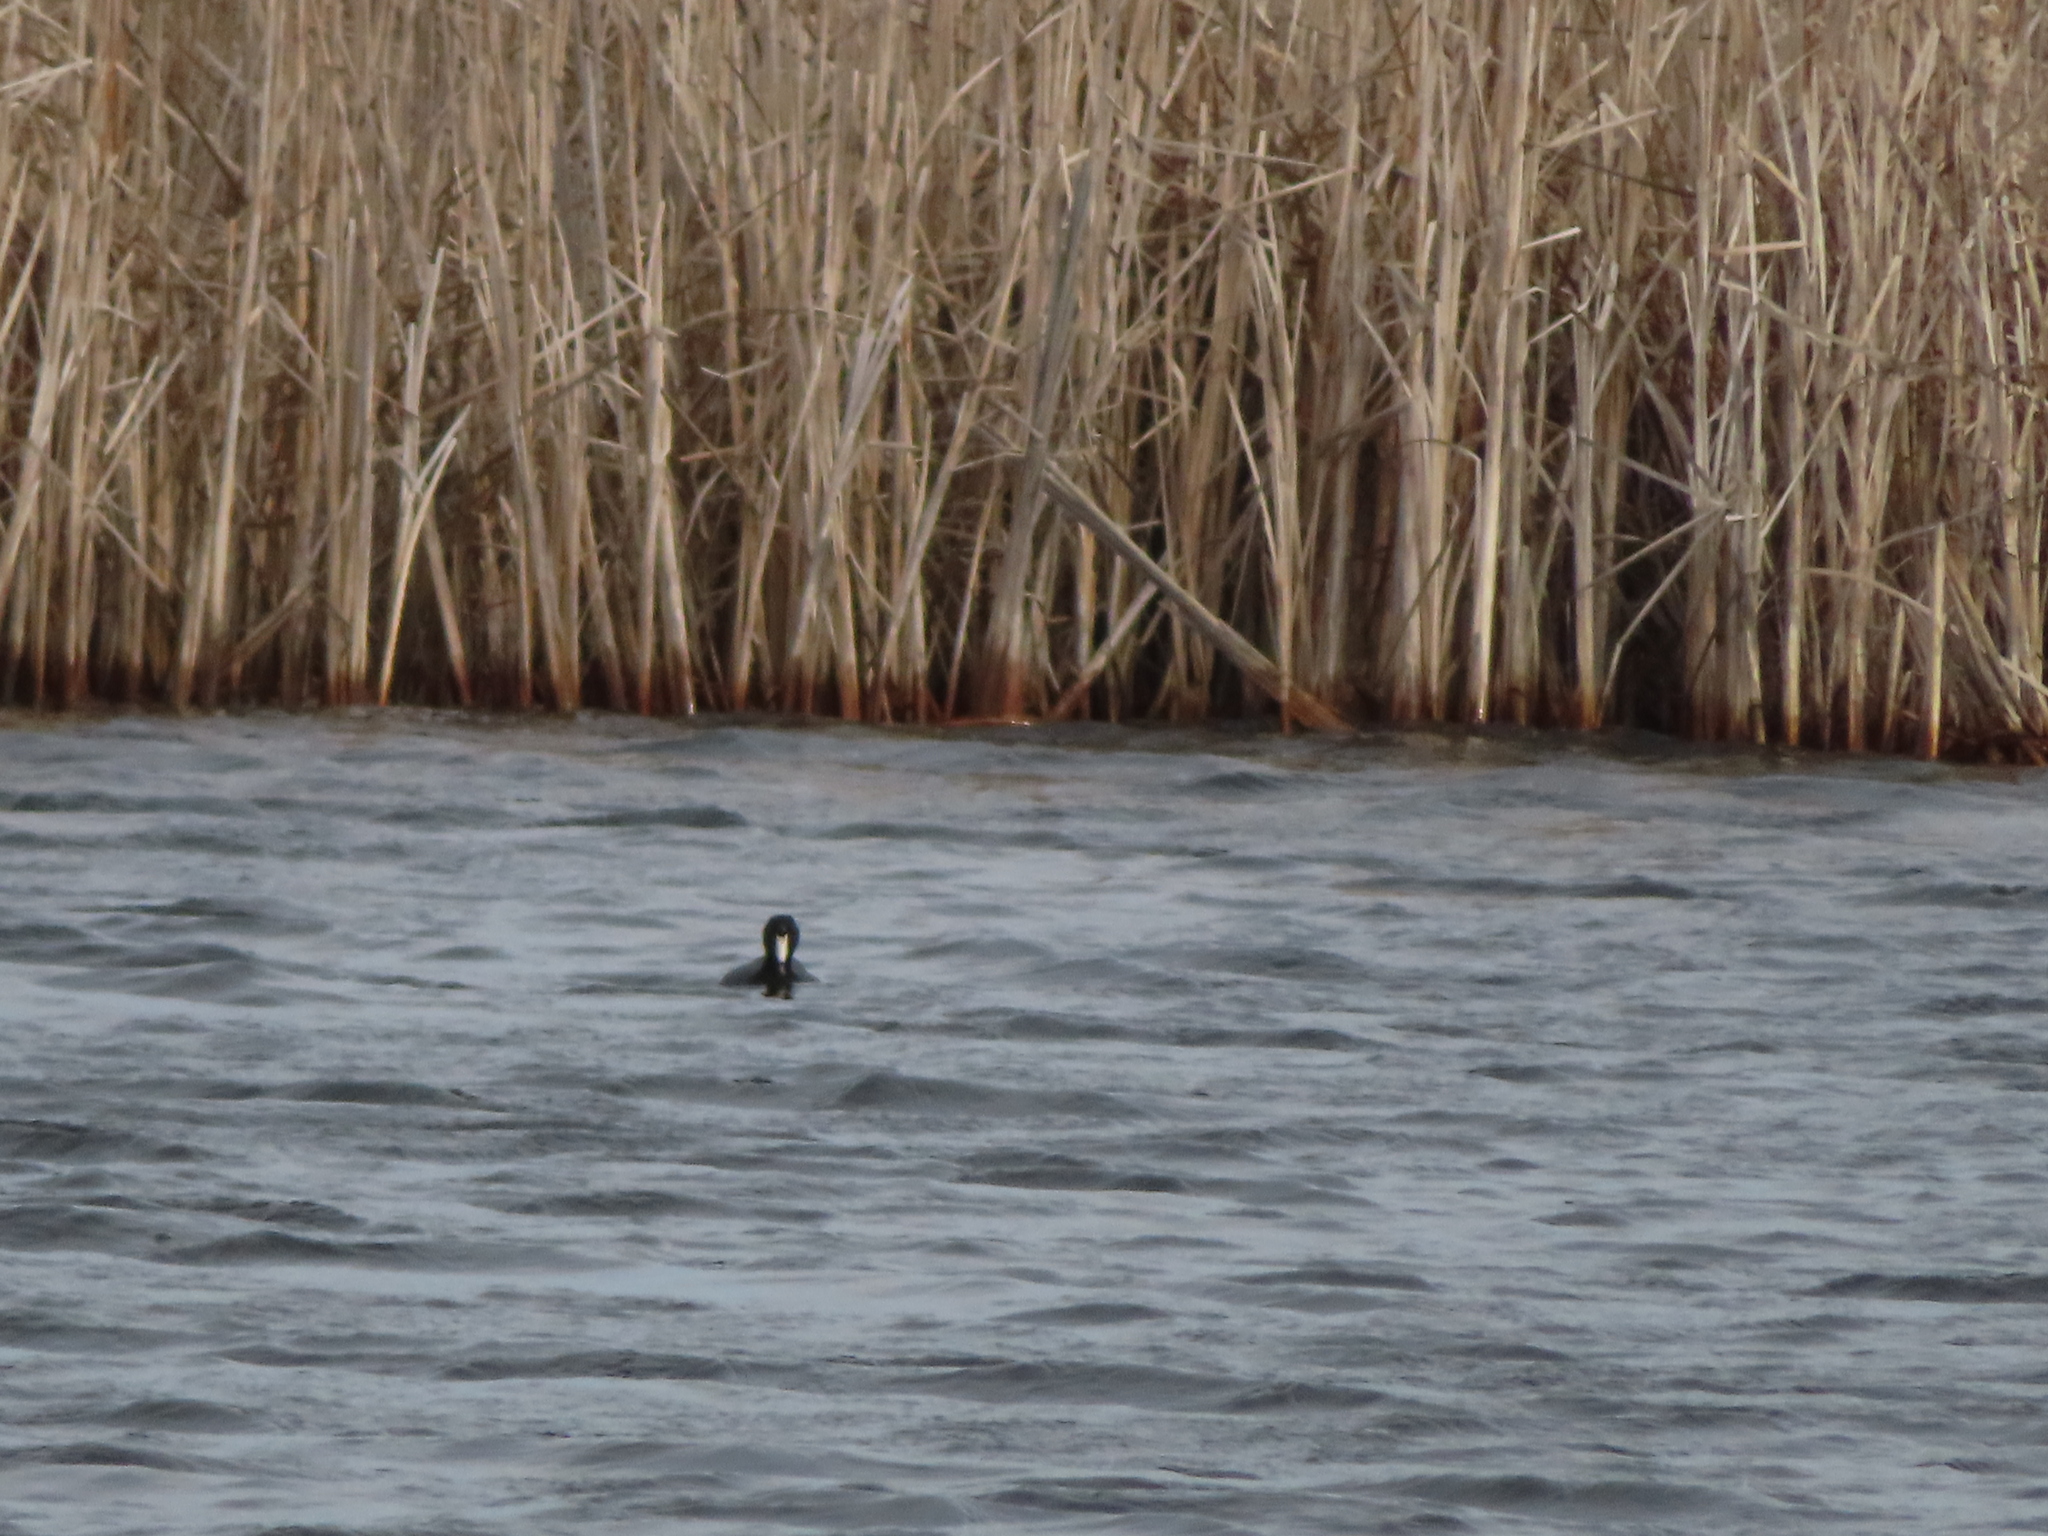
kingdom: Animalia
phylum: Chordata
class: Aves
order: Gruiformes
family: Rallidae
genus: Fulica
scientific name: Fulica americana
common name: American coot
